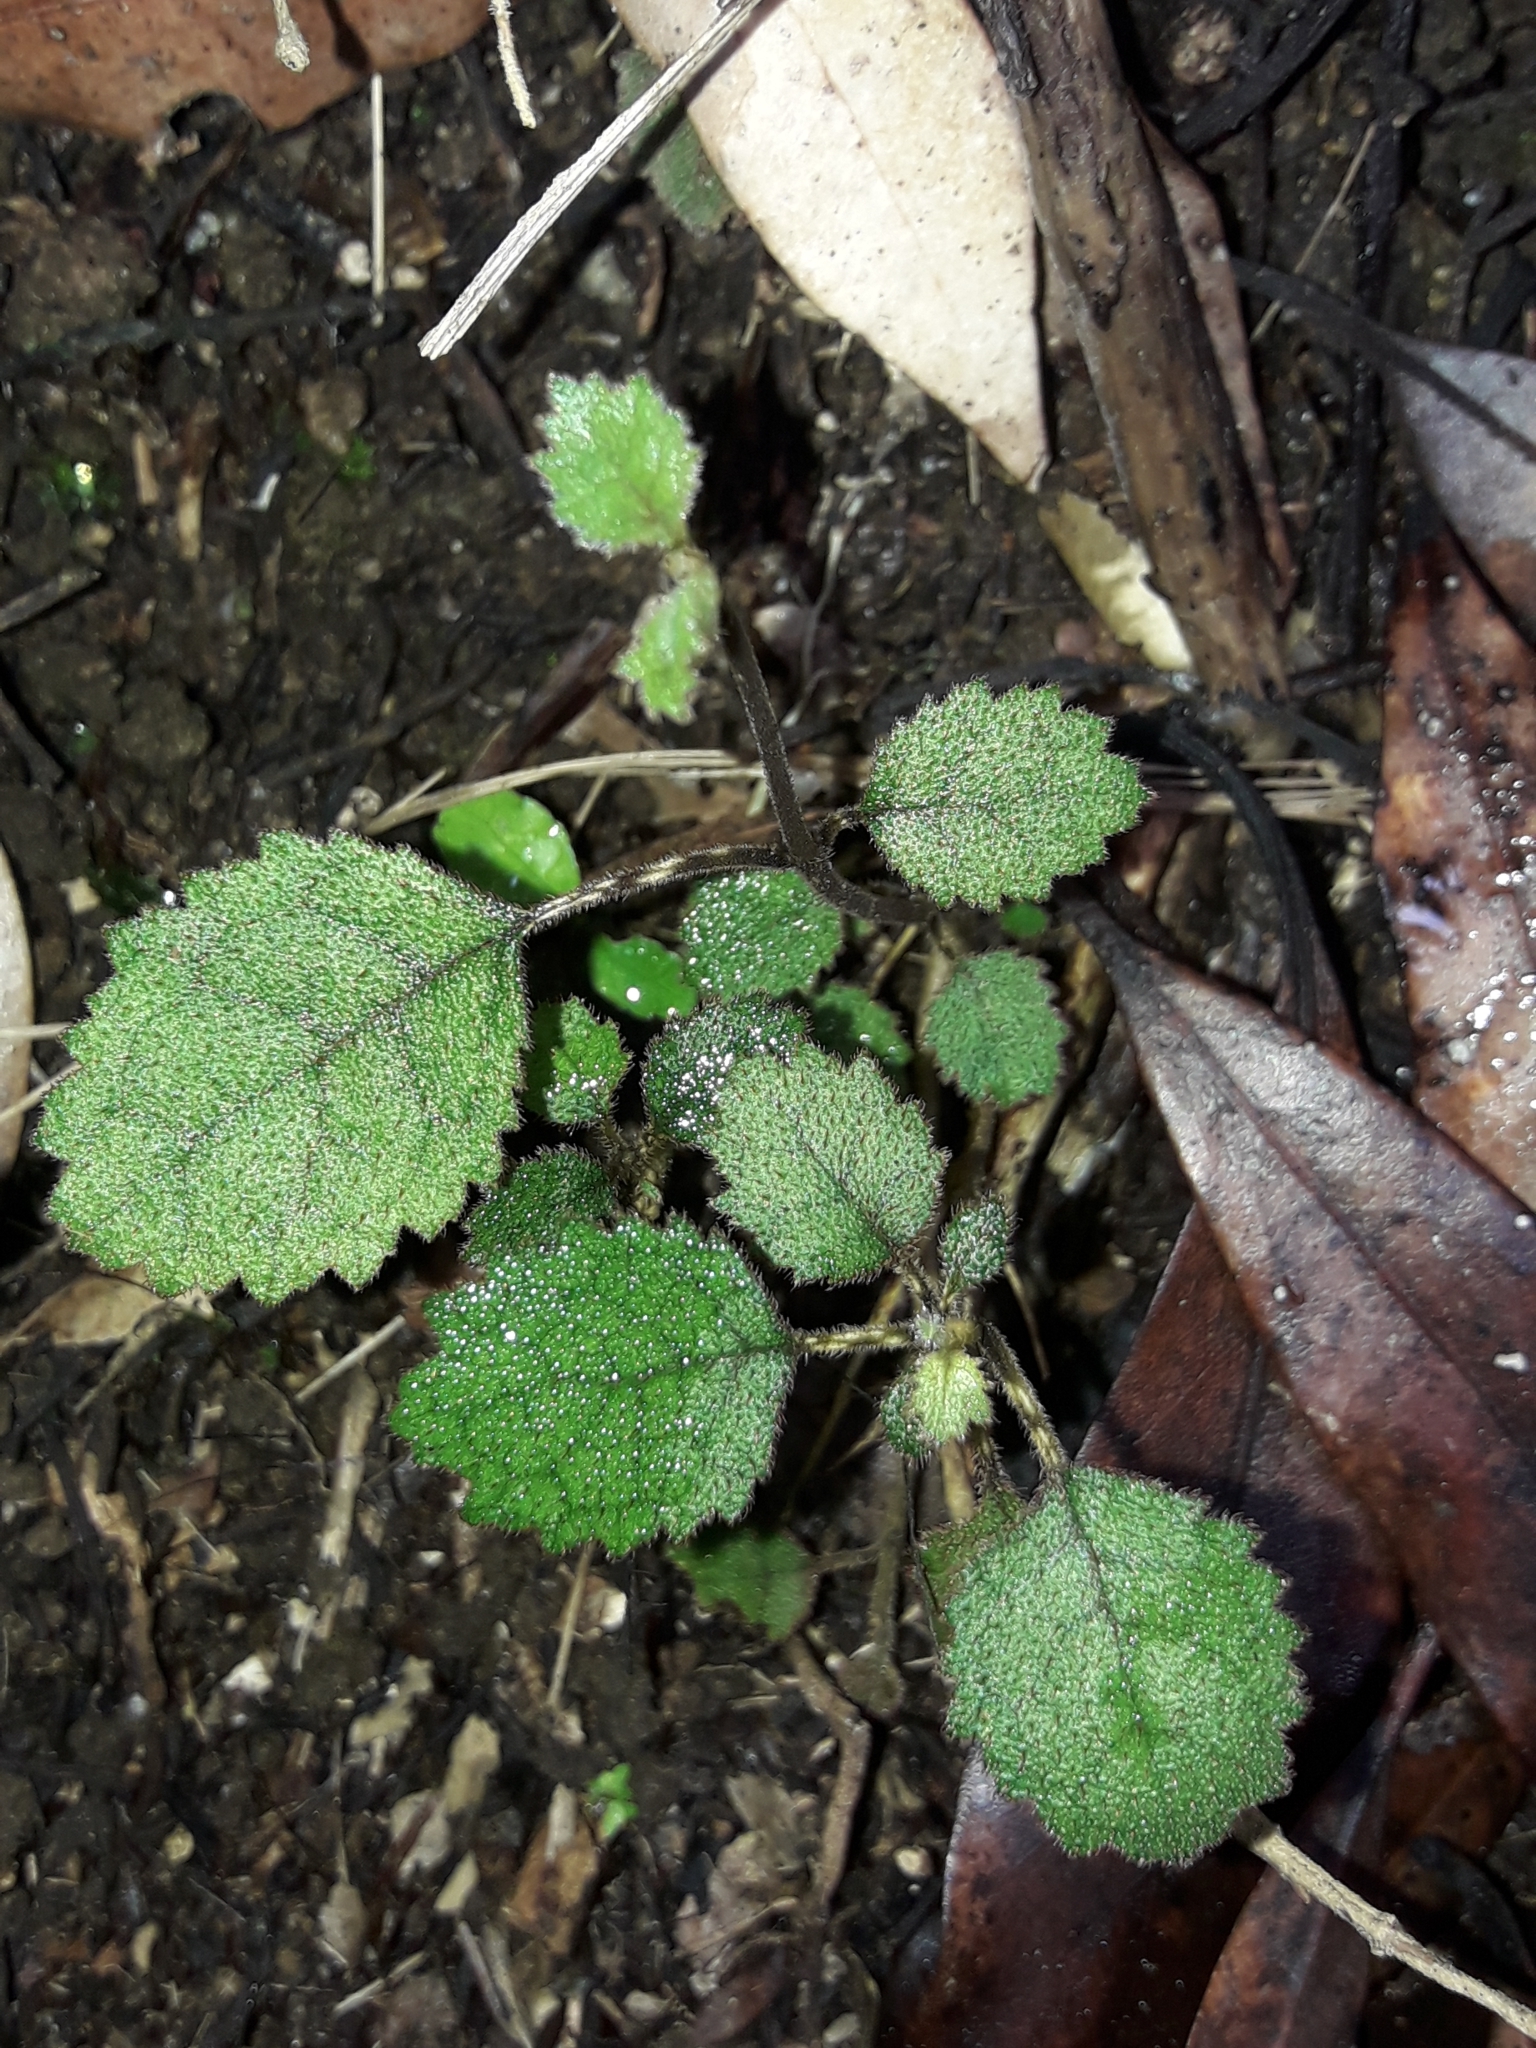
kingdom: Plantae
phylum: Tracheophyta
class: Magnoliopsida
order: Lamiales
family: Gesneriaceae
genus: Rhabdothamnus
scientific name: Rhabdothamnus solandri
